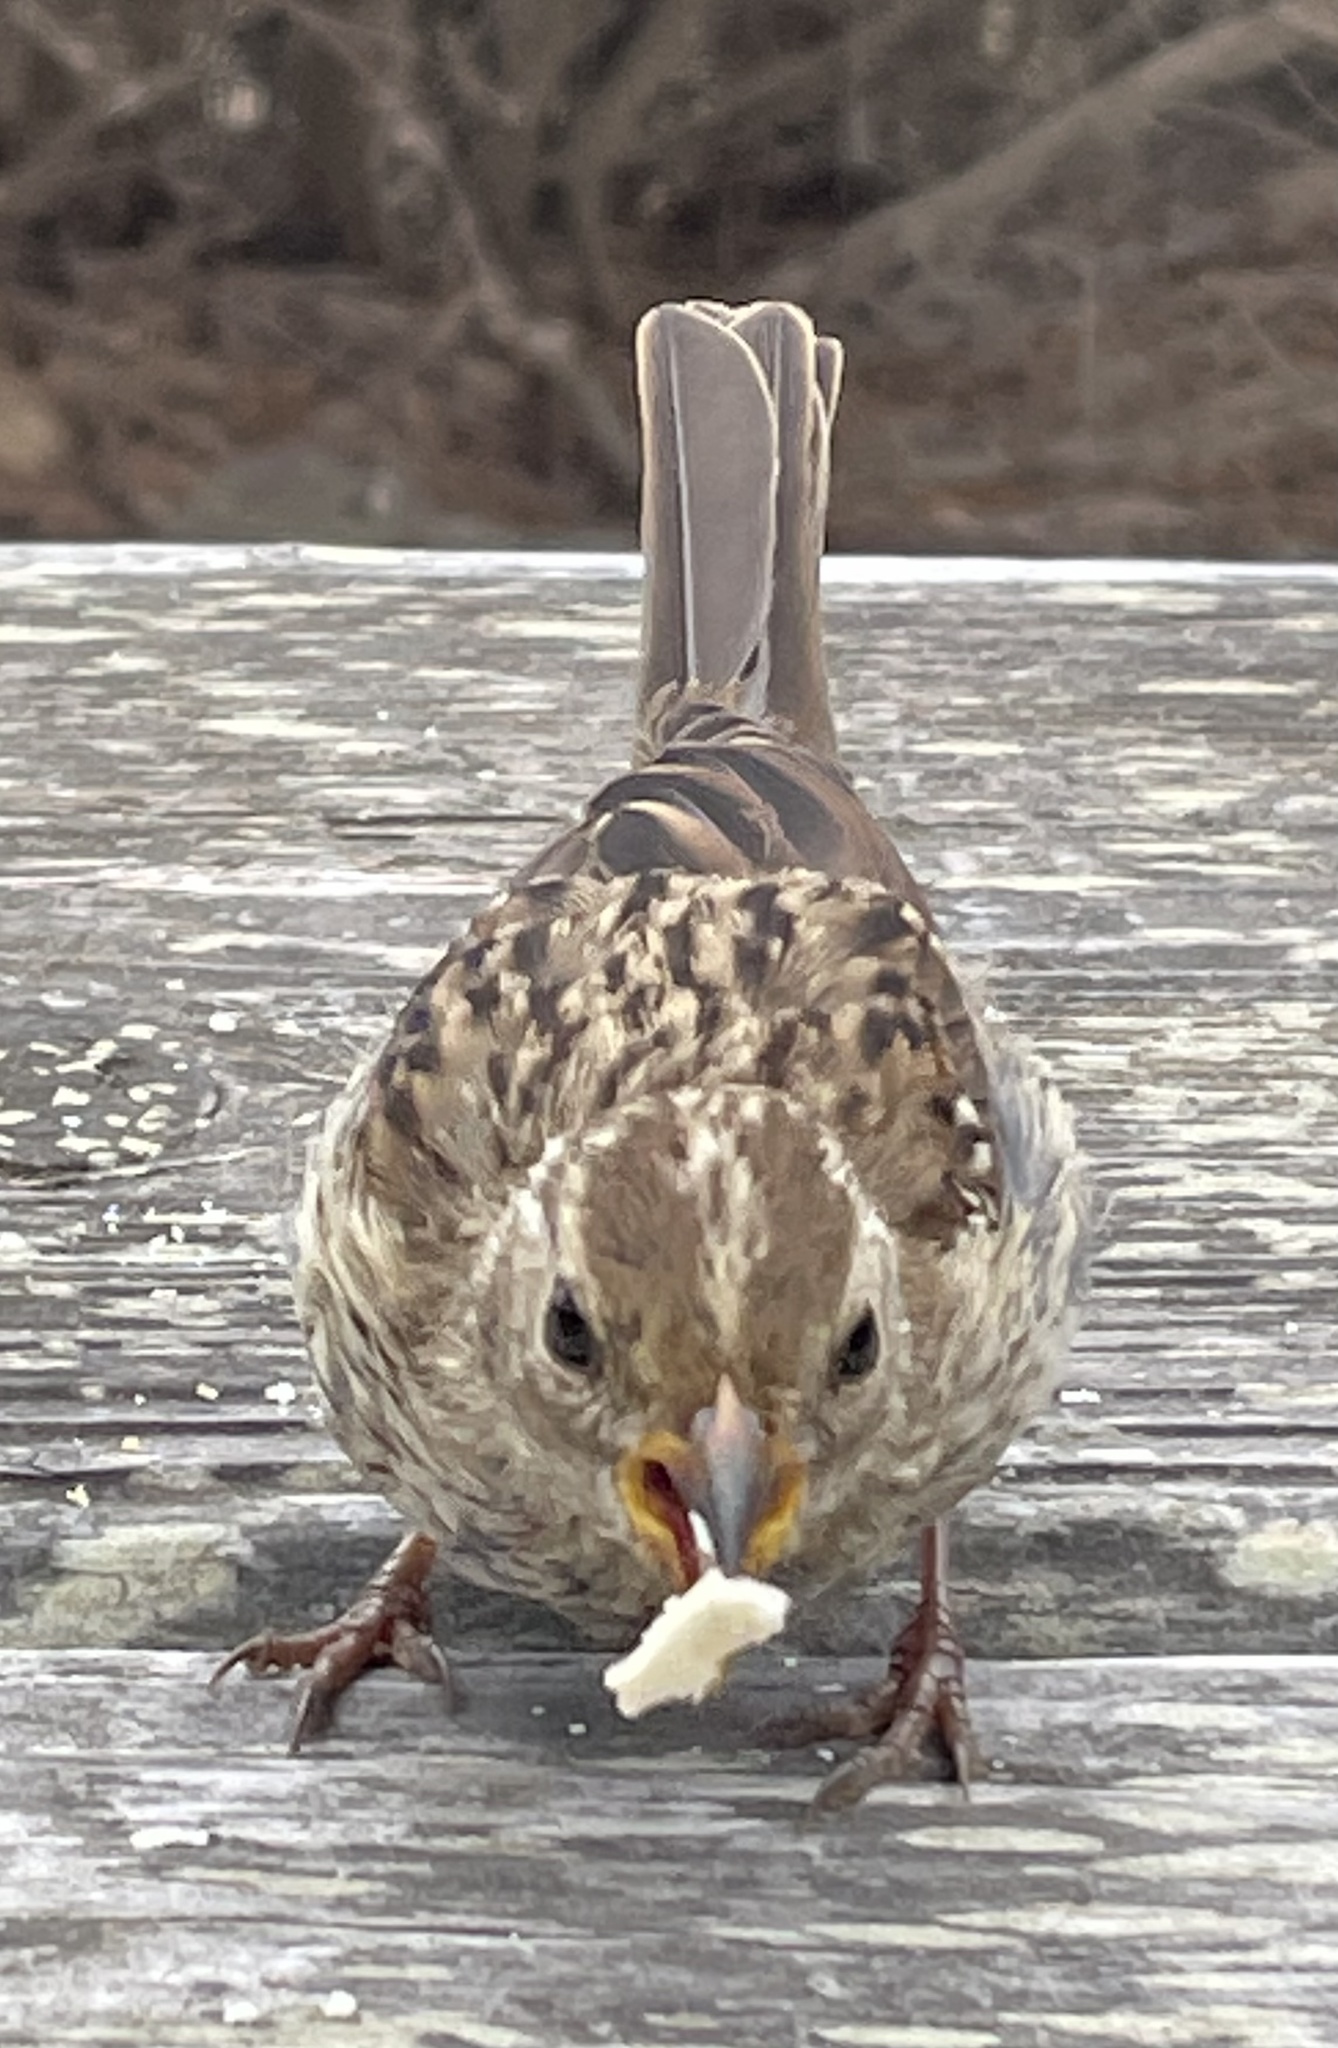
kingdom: Animalia
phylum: Chordata
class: Aves
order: Passeriformes
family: Passerellidae
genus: Zonotrichia
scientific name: Zonotrichia leucophrys
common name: White-crowned sparrow
